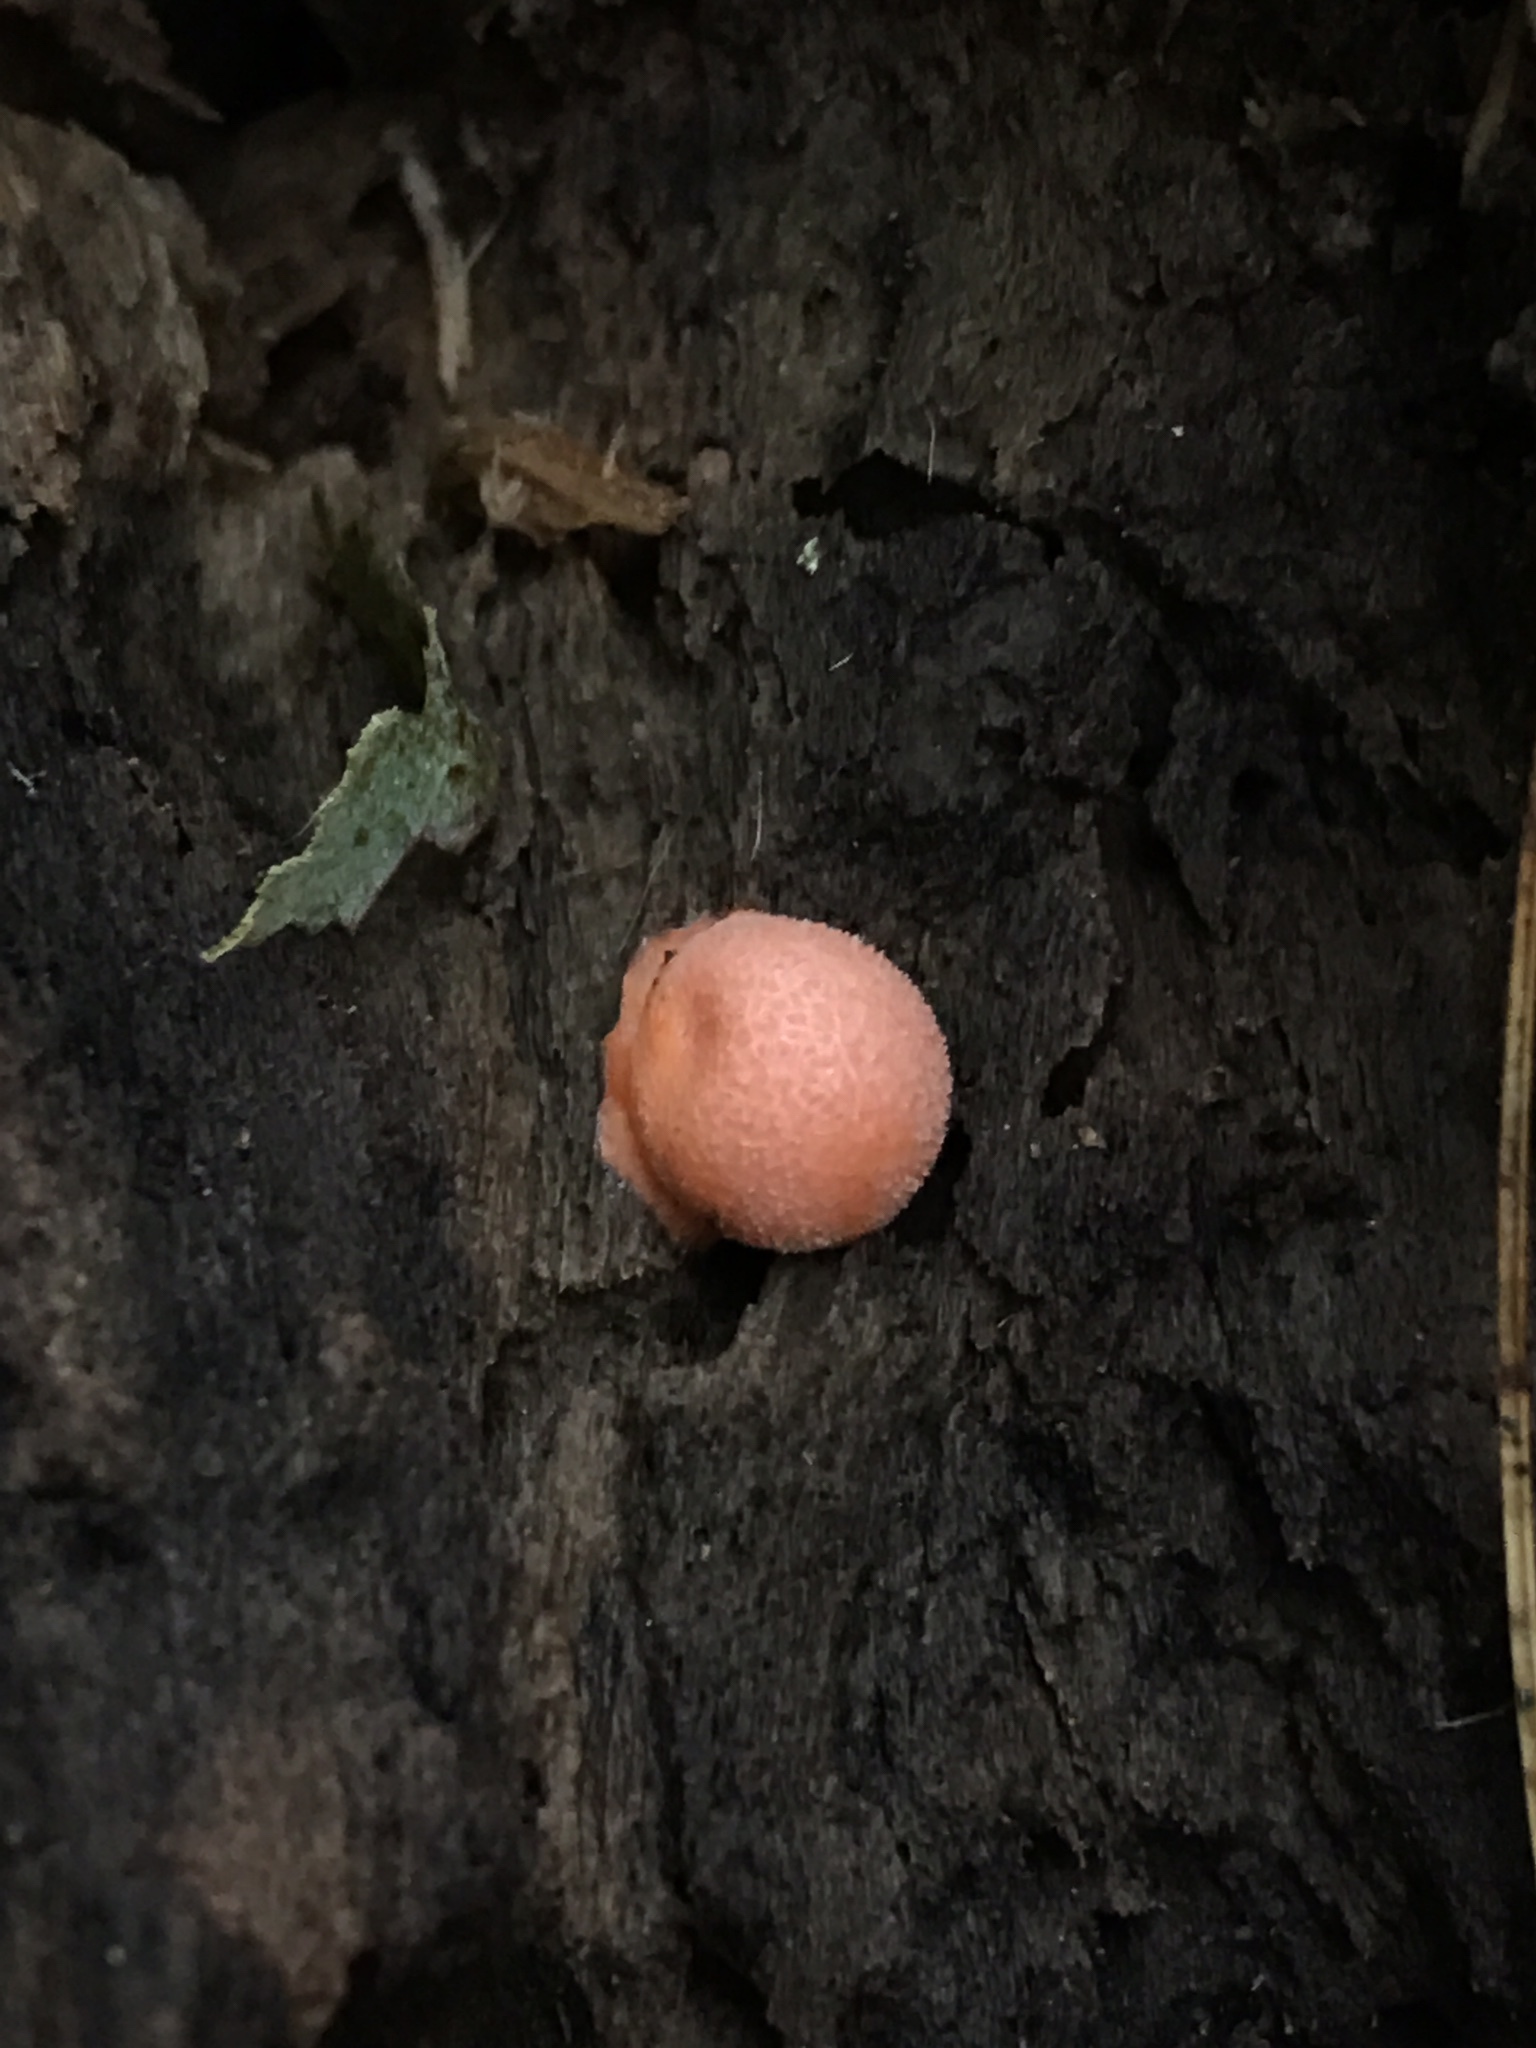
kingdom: Protozoa
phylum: Mycetozoa
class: Myxomycetes
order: Cribrariales
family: Tubiferaceae
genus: Lycogala
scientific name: Lycogala epidendrum
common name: Wolf's milk
